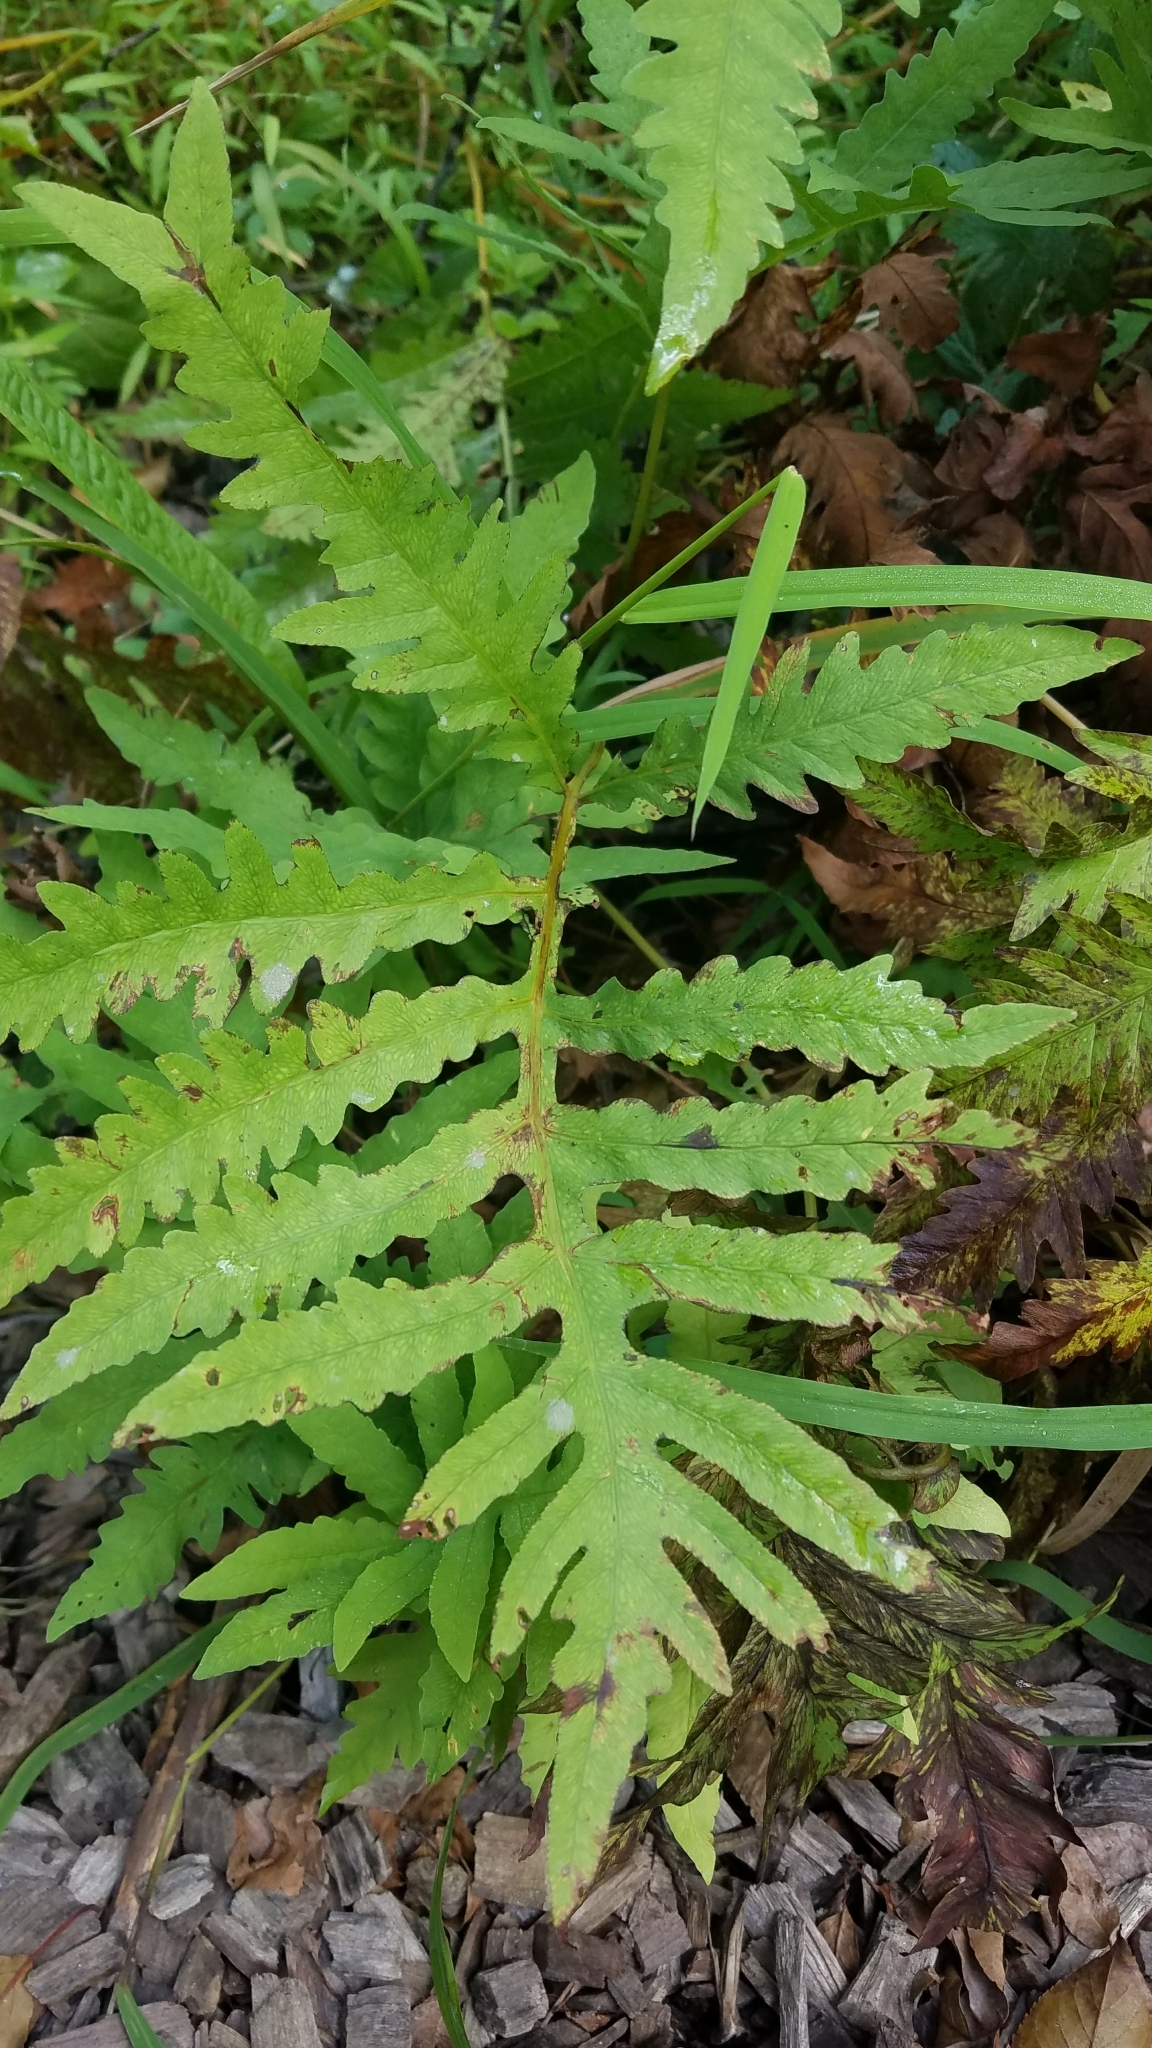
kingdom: Plantae
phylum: Tracheophyta
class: Polypodiopsida
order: Polypodiales
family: Onocleaceae
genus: Onoclea
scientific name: Onoclea sensibilis
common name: Sensitive fern
